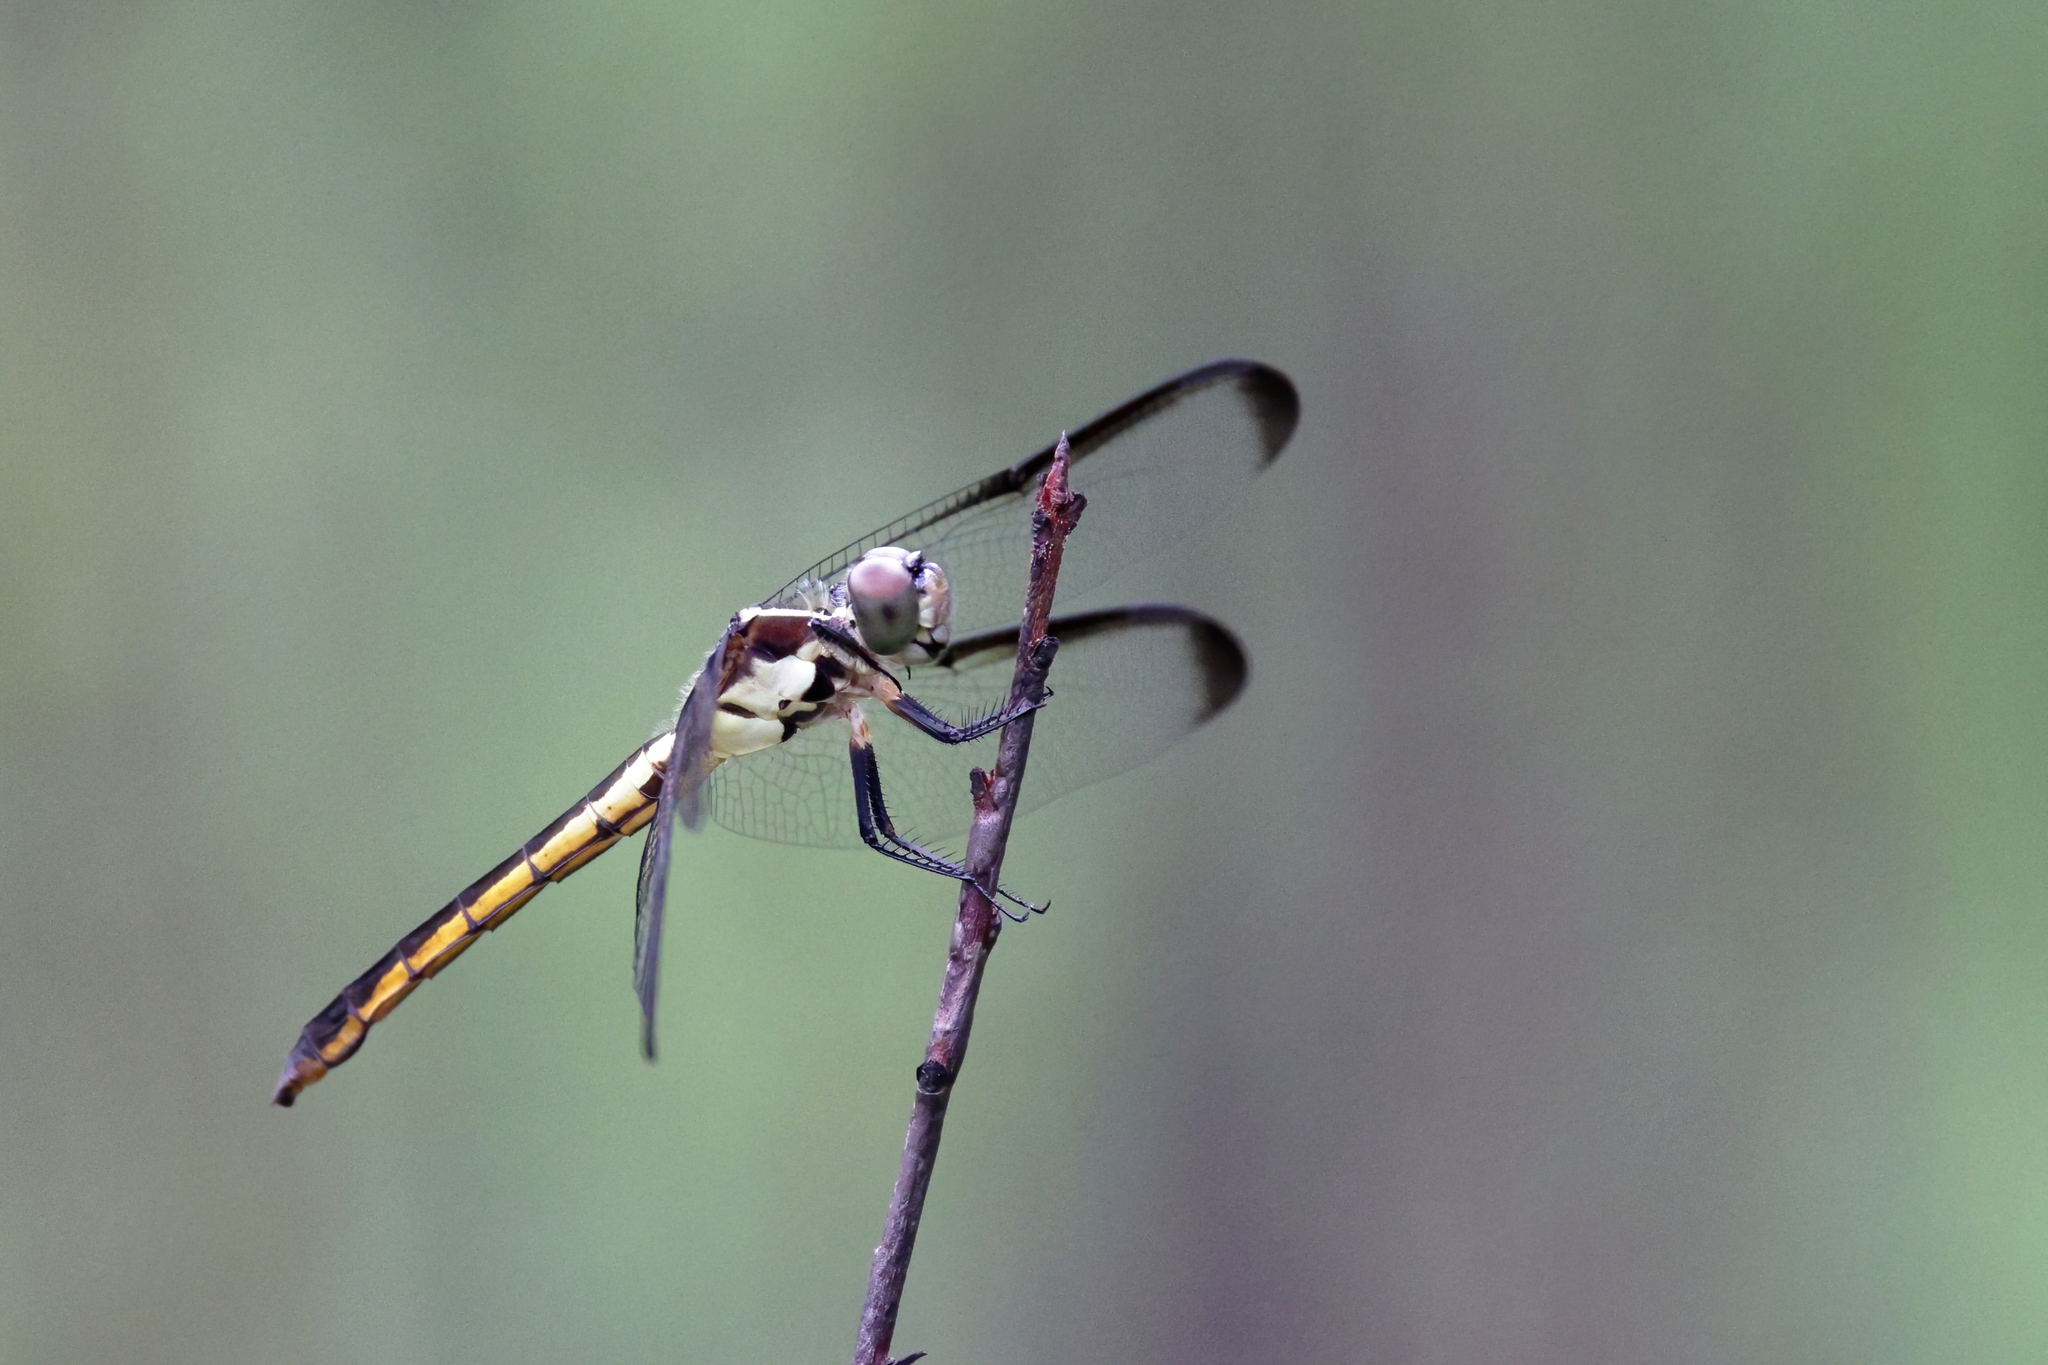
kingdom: Animalia
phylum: Arthropoda
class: Insecta
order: Odonata
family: Libellulidae
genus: Libellula
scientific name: Libellula incesta
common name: Slaty skimmer
